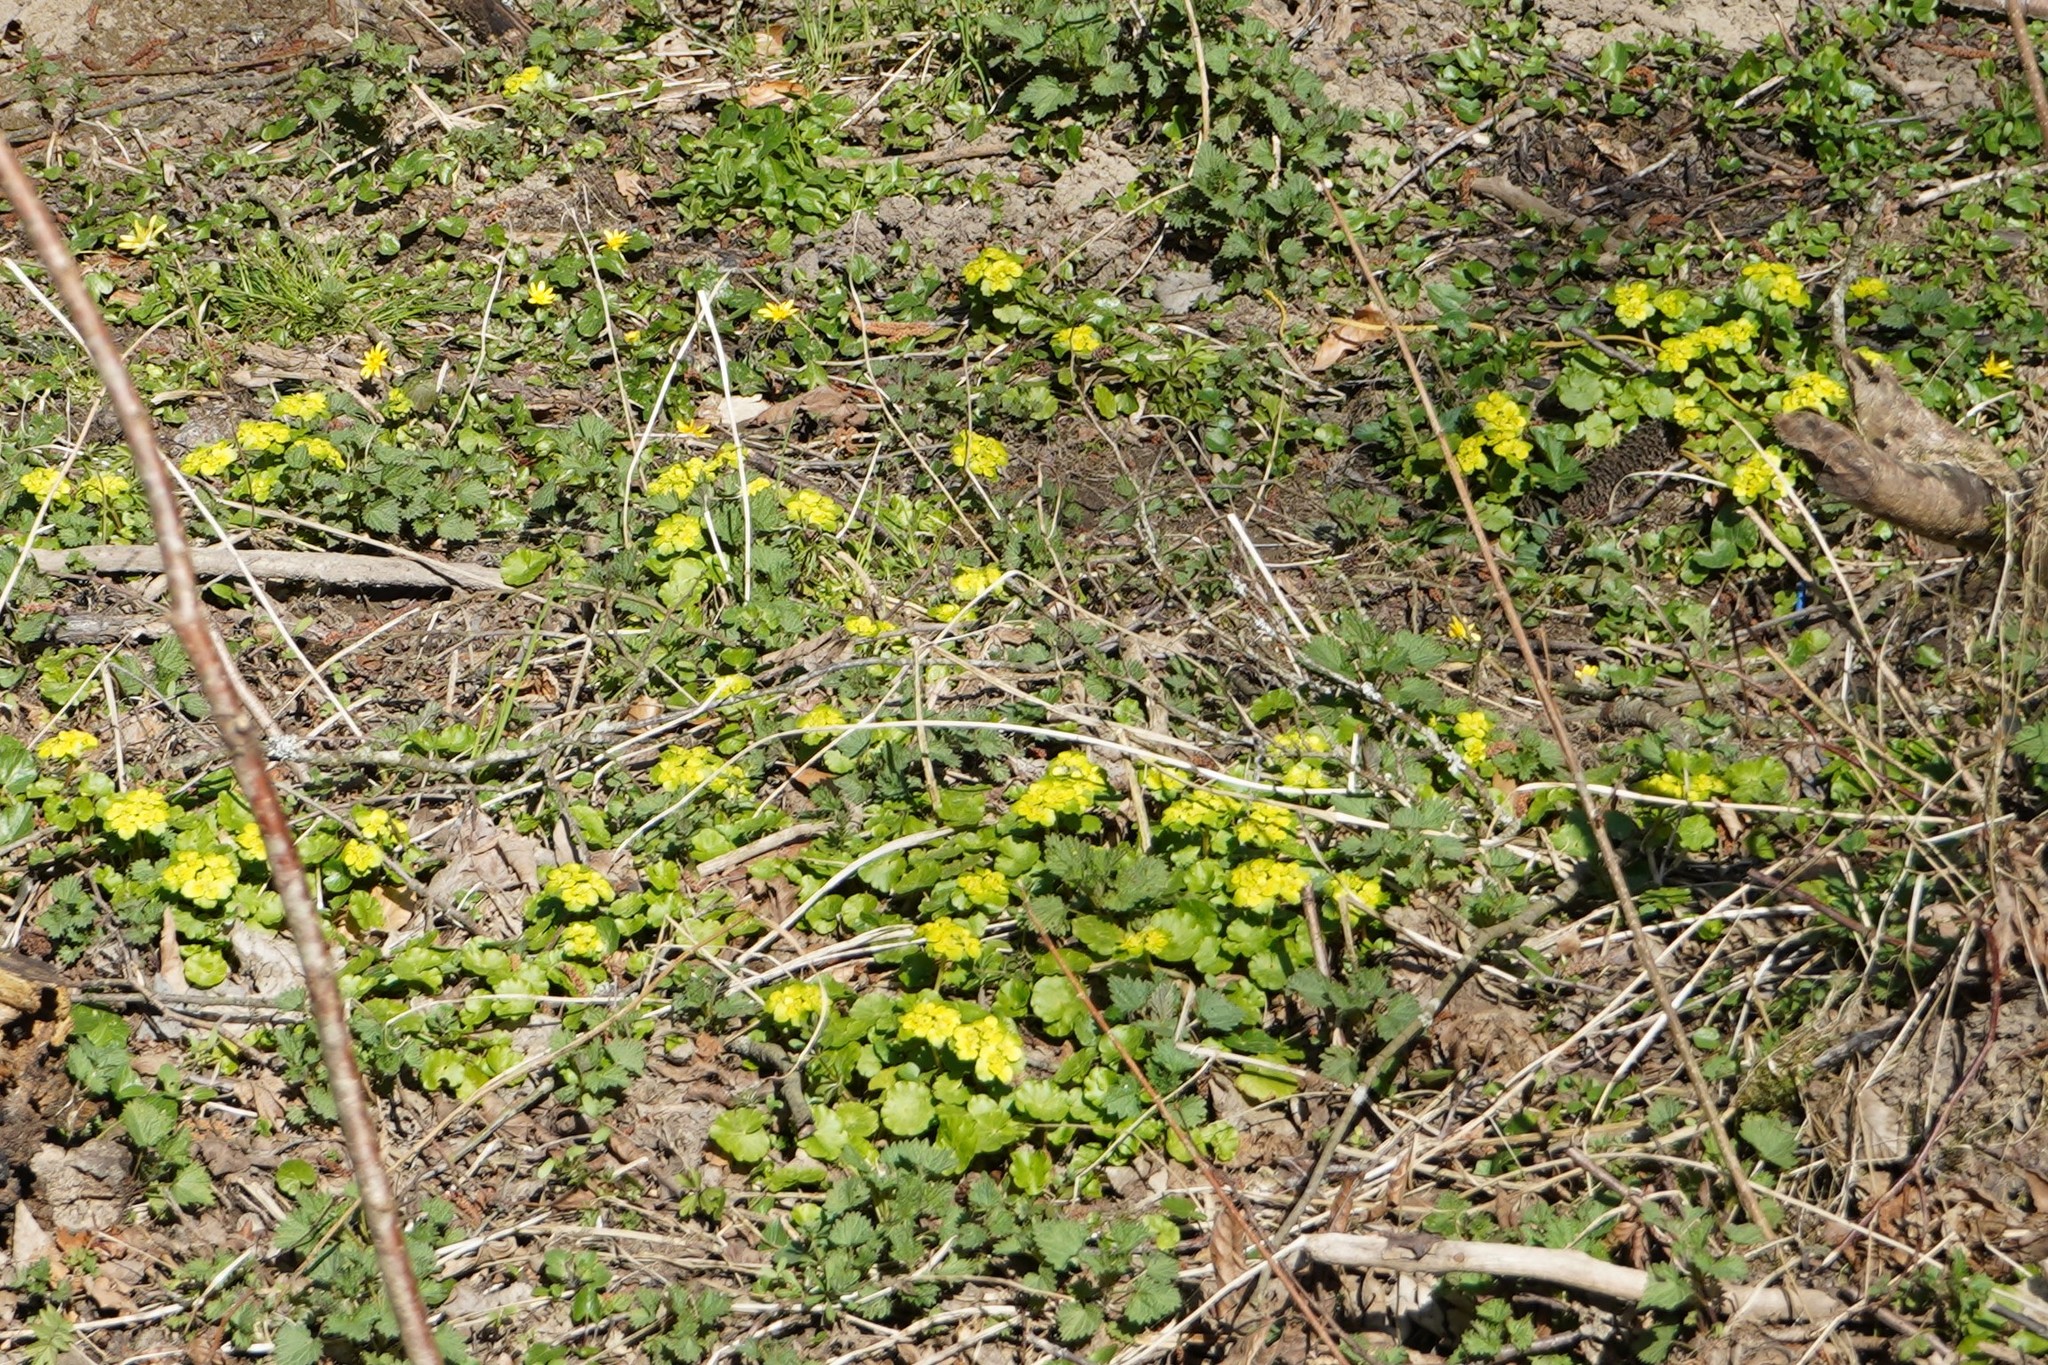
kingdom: Plantae
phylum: Tracheophyta
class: Magnoliopsida
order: Saxifragales
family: Saxifragaceae
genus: Chrysosplenium
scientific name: Chrysosplenium alternifolium
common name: Alternate-leaved golden-saxifrage
